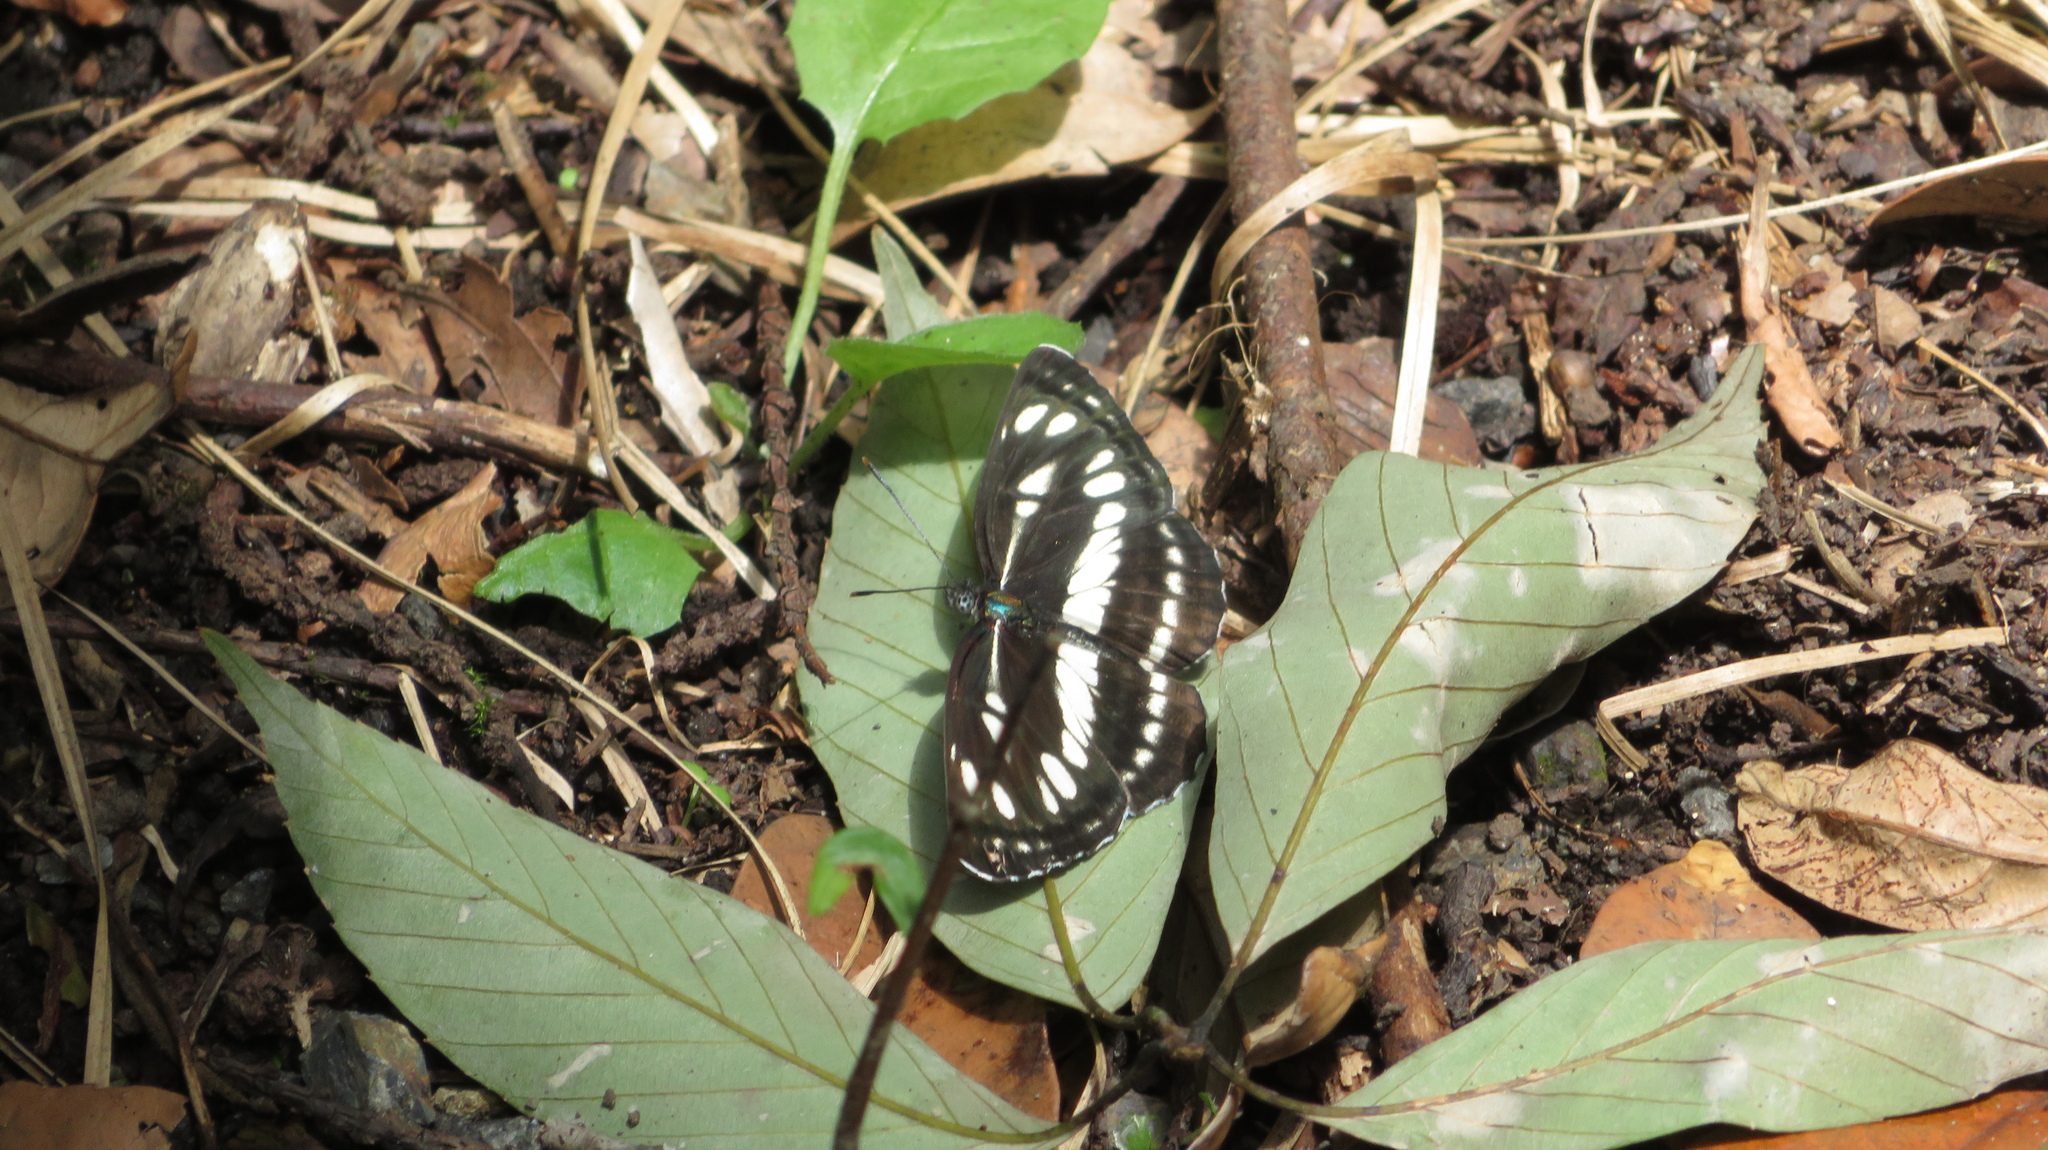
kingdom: Animalia
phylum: Arthropoda
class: Insecta
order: Lepidoptera
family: Nymphalidae
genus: Neptis
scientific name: Neptis sappho
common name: Common glider
